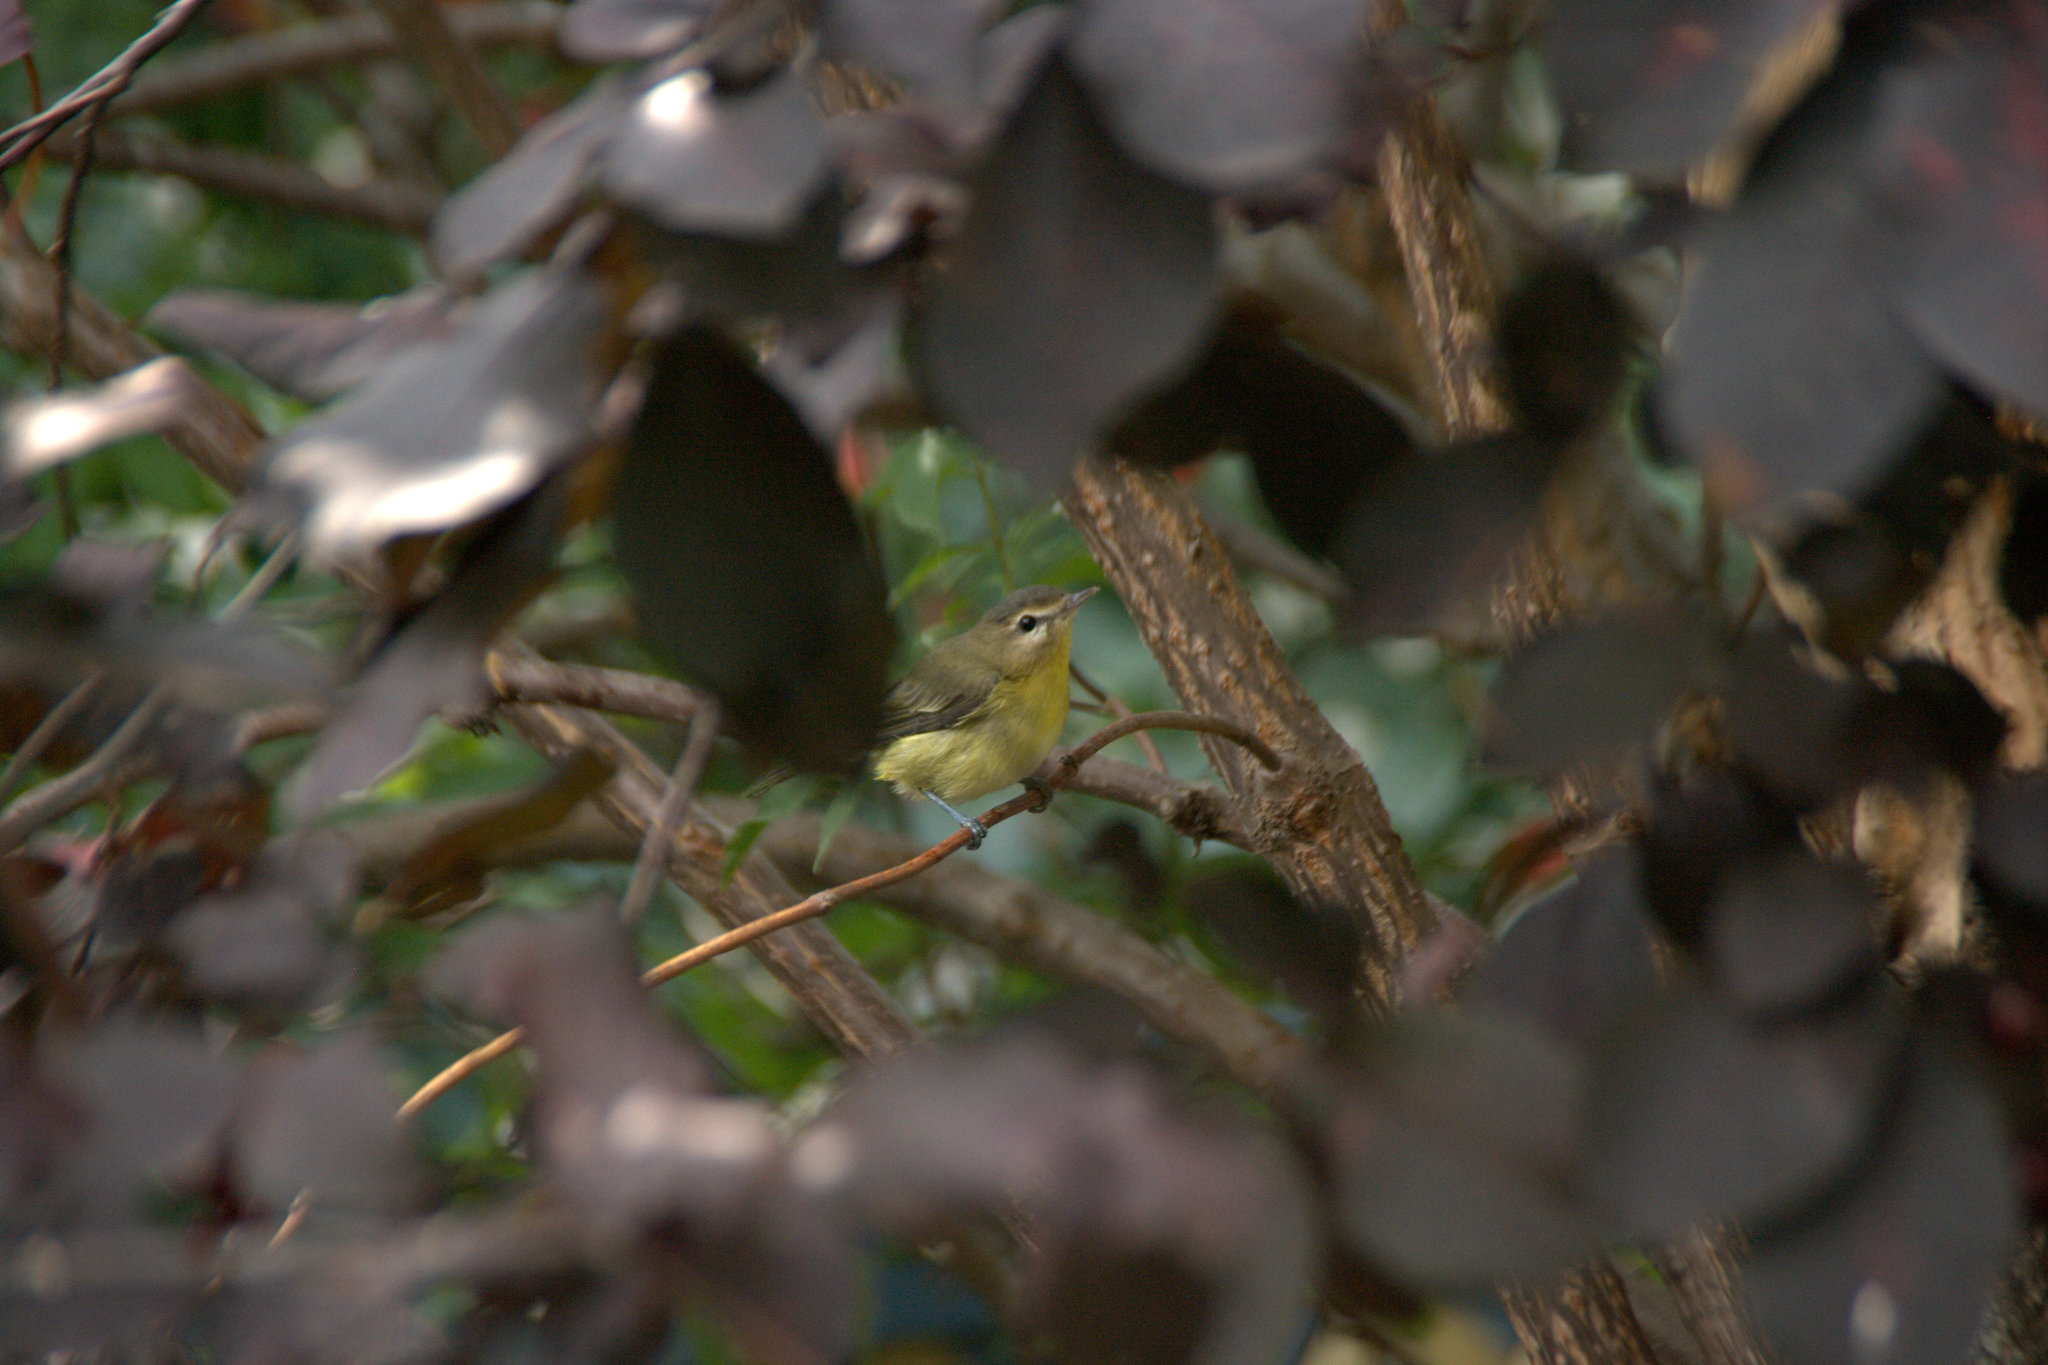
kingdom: Animalia
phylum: Chordata
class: Aves
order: Passeriformes
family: Vireonidae
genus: Vireo
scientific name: Vireo philadelphicus
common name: Philadelphia vireo
